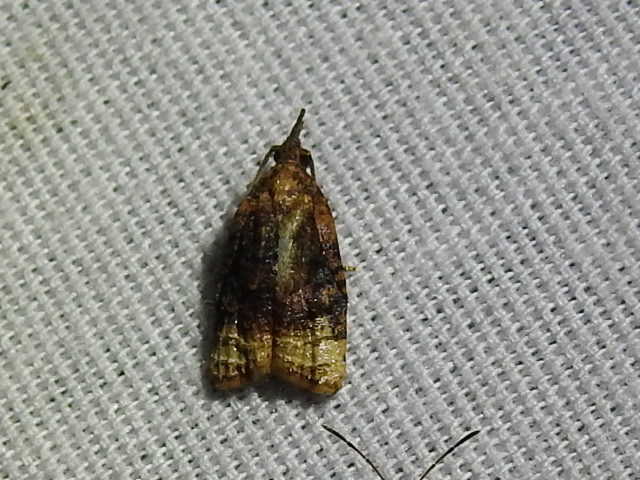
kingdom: Animalia
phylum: Arthropoda
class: Insecta
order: Lepidoptera
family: Tortricidae
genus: Platynota
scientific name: Platynota flavedana
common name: Black-shaded platynota moth
